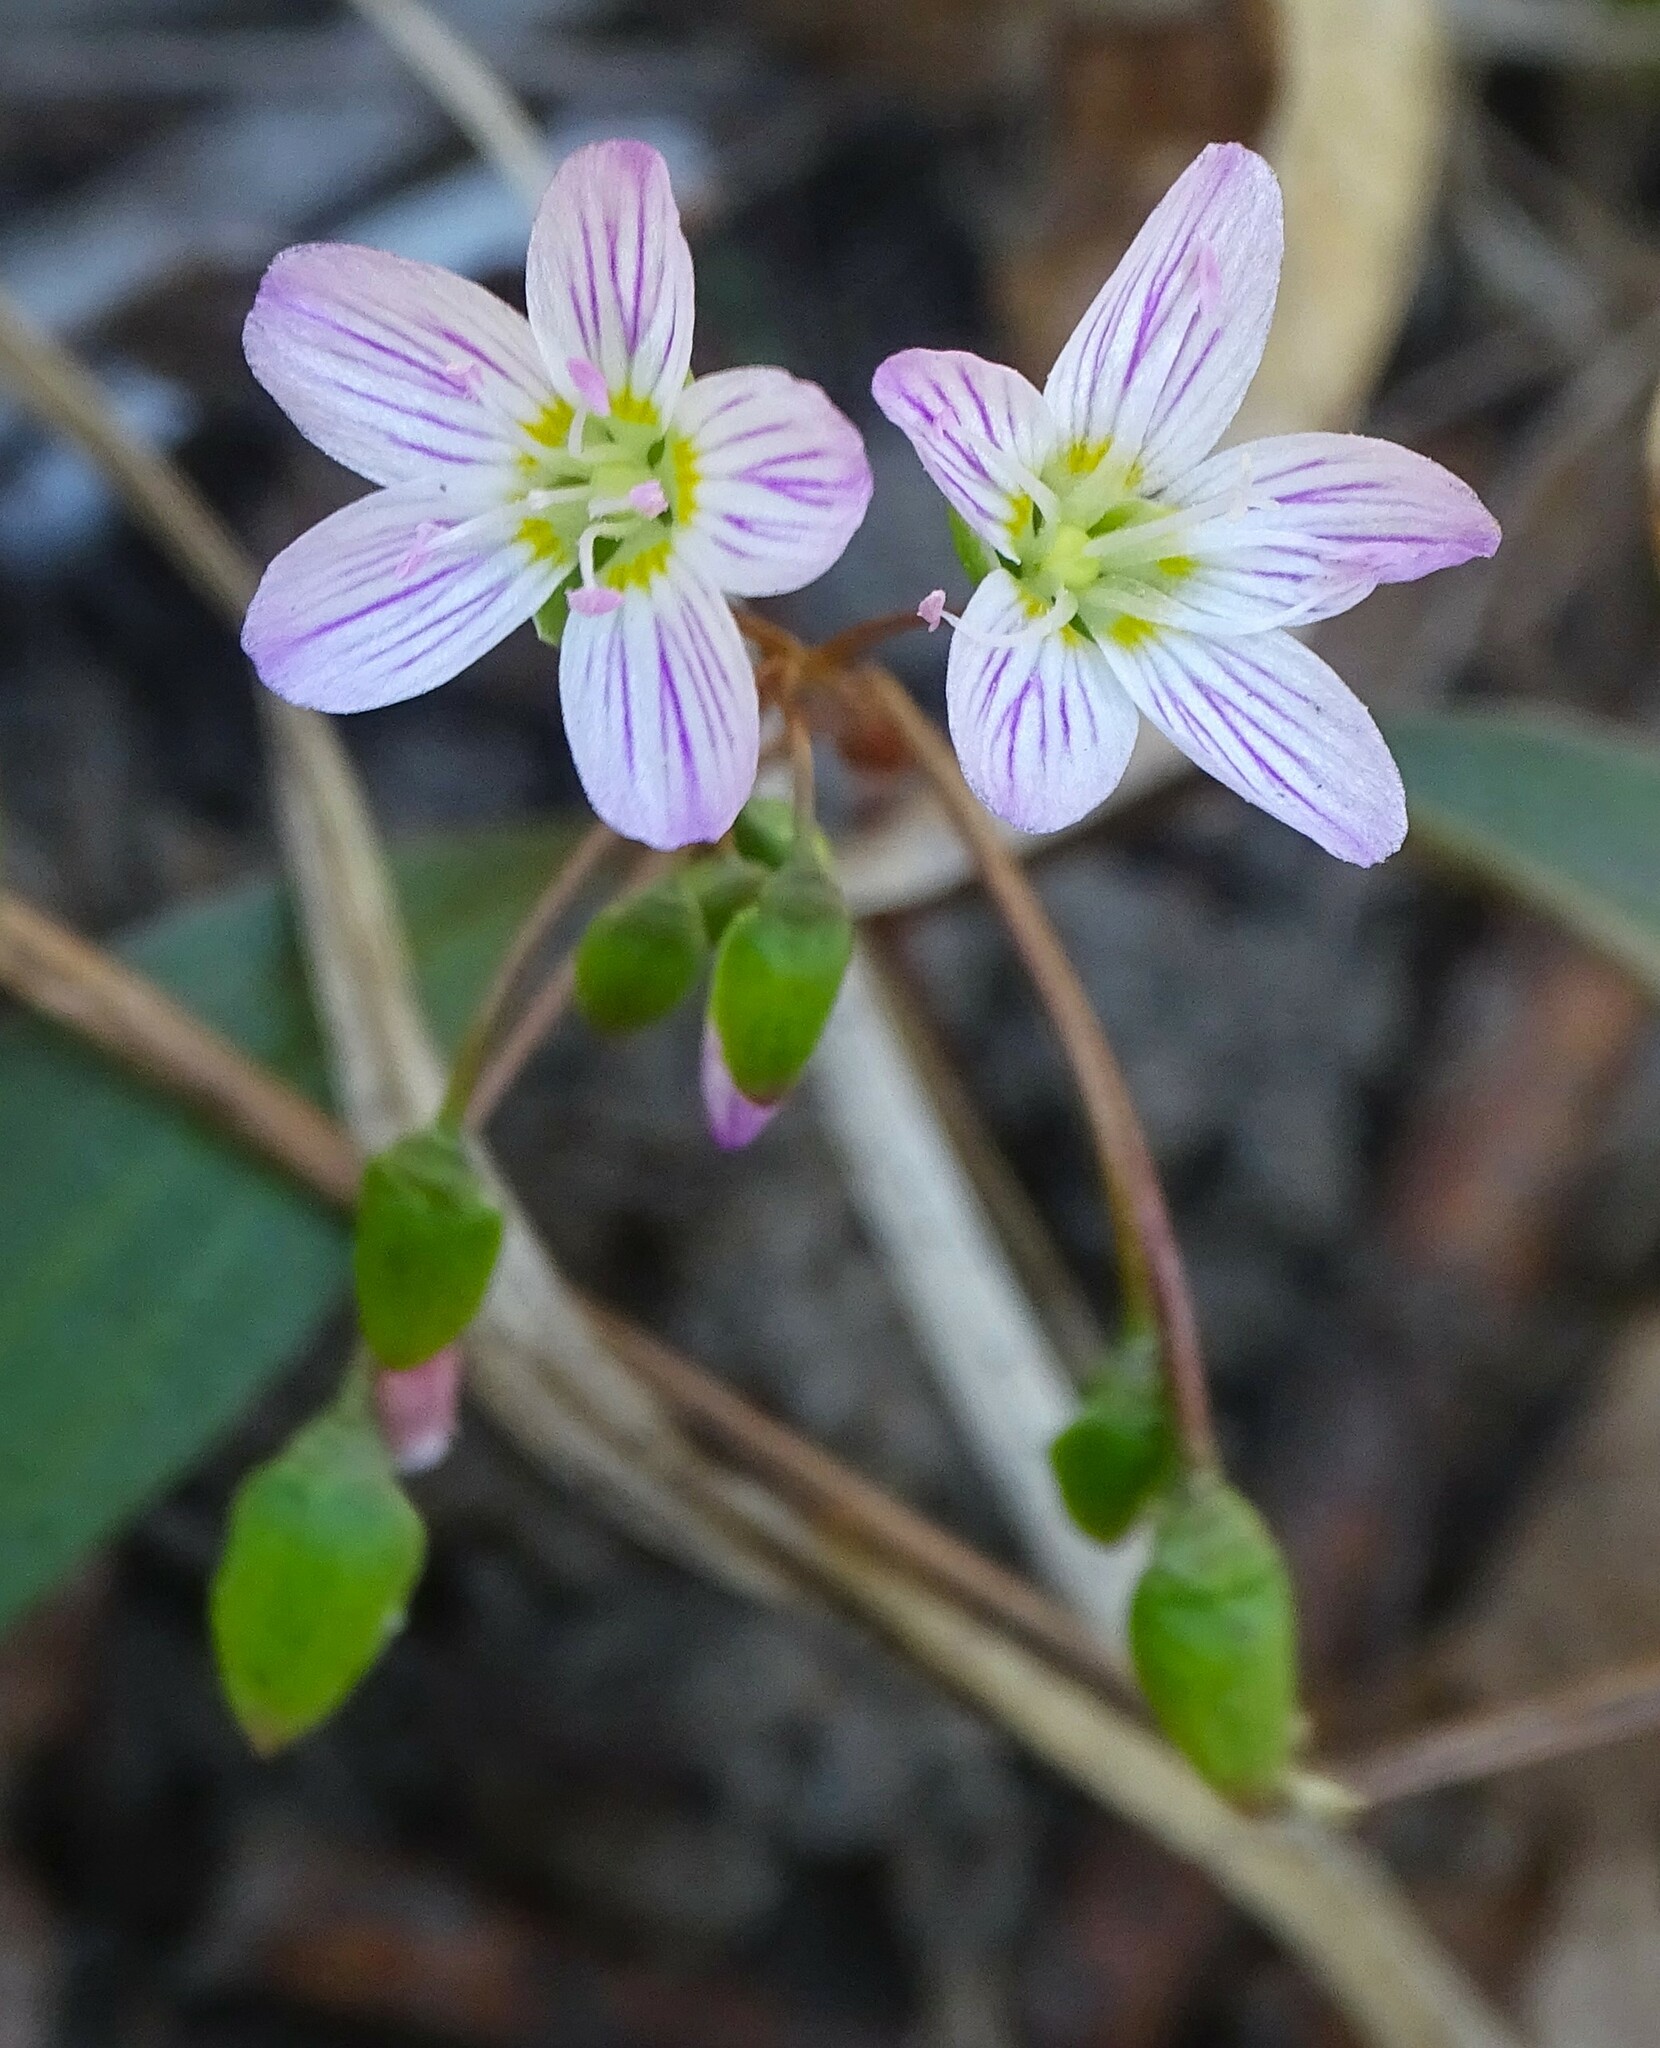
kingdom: Plantae
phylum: Tracheophyta
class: Magnoliopsida
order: Caryophyllales
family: Montiaceae
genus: Claytonia
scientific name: Claytonia caroliniana
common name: Carolina spring beauty
